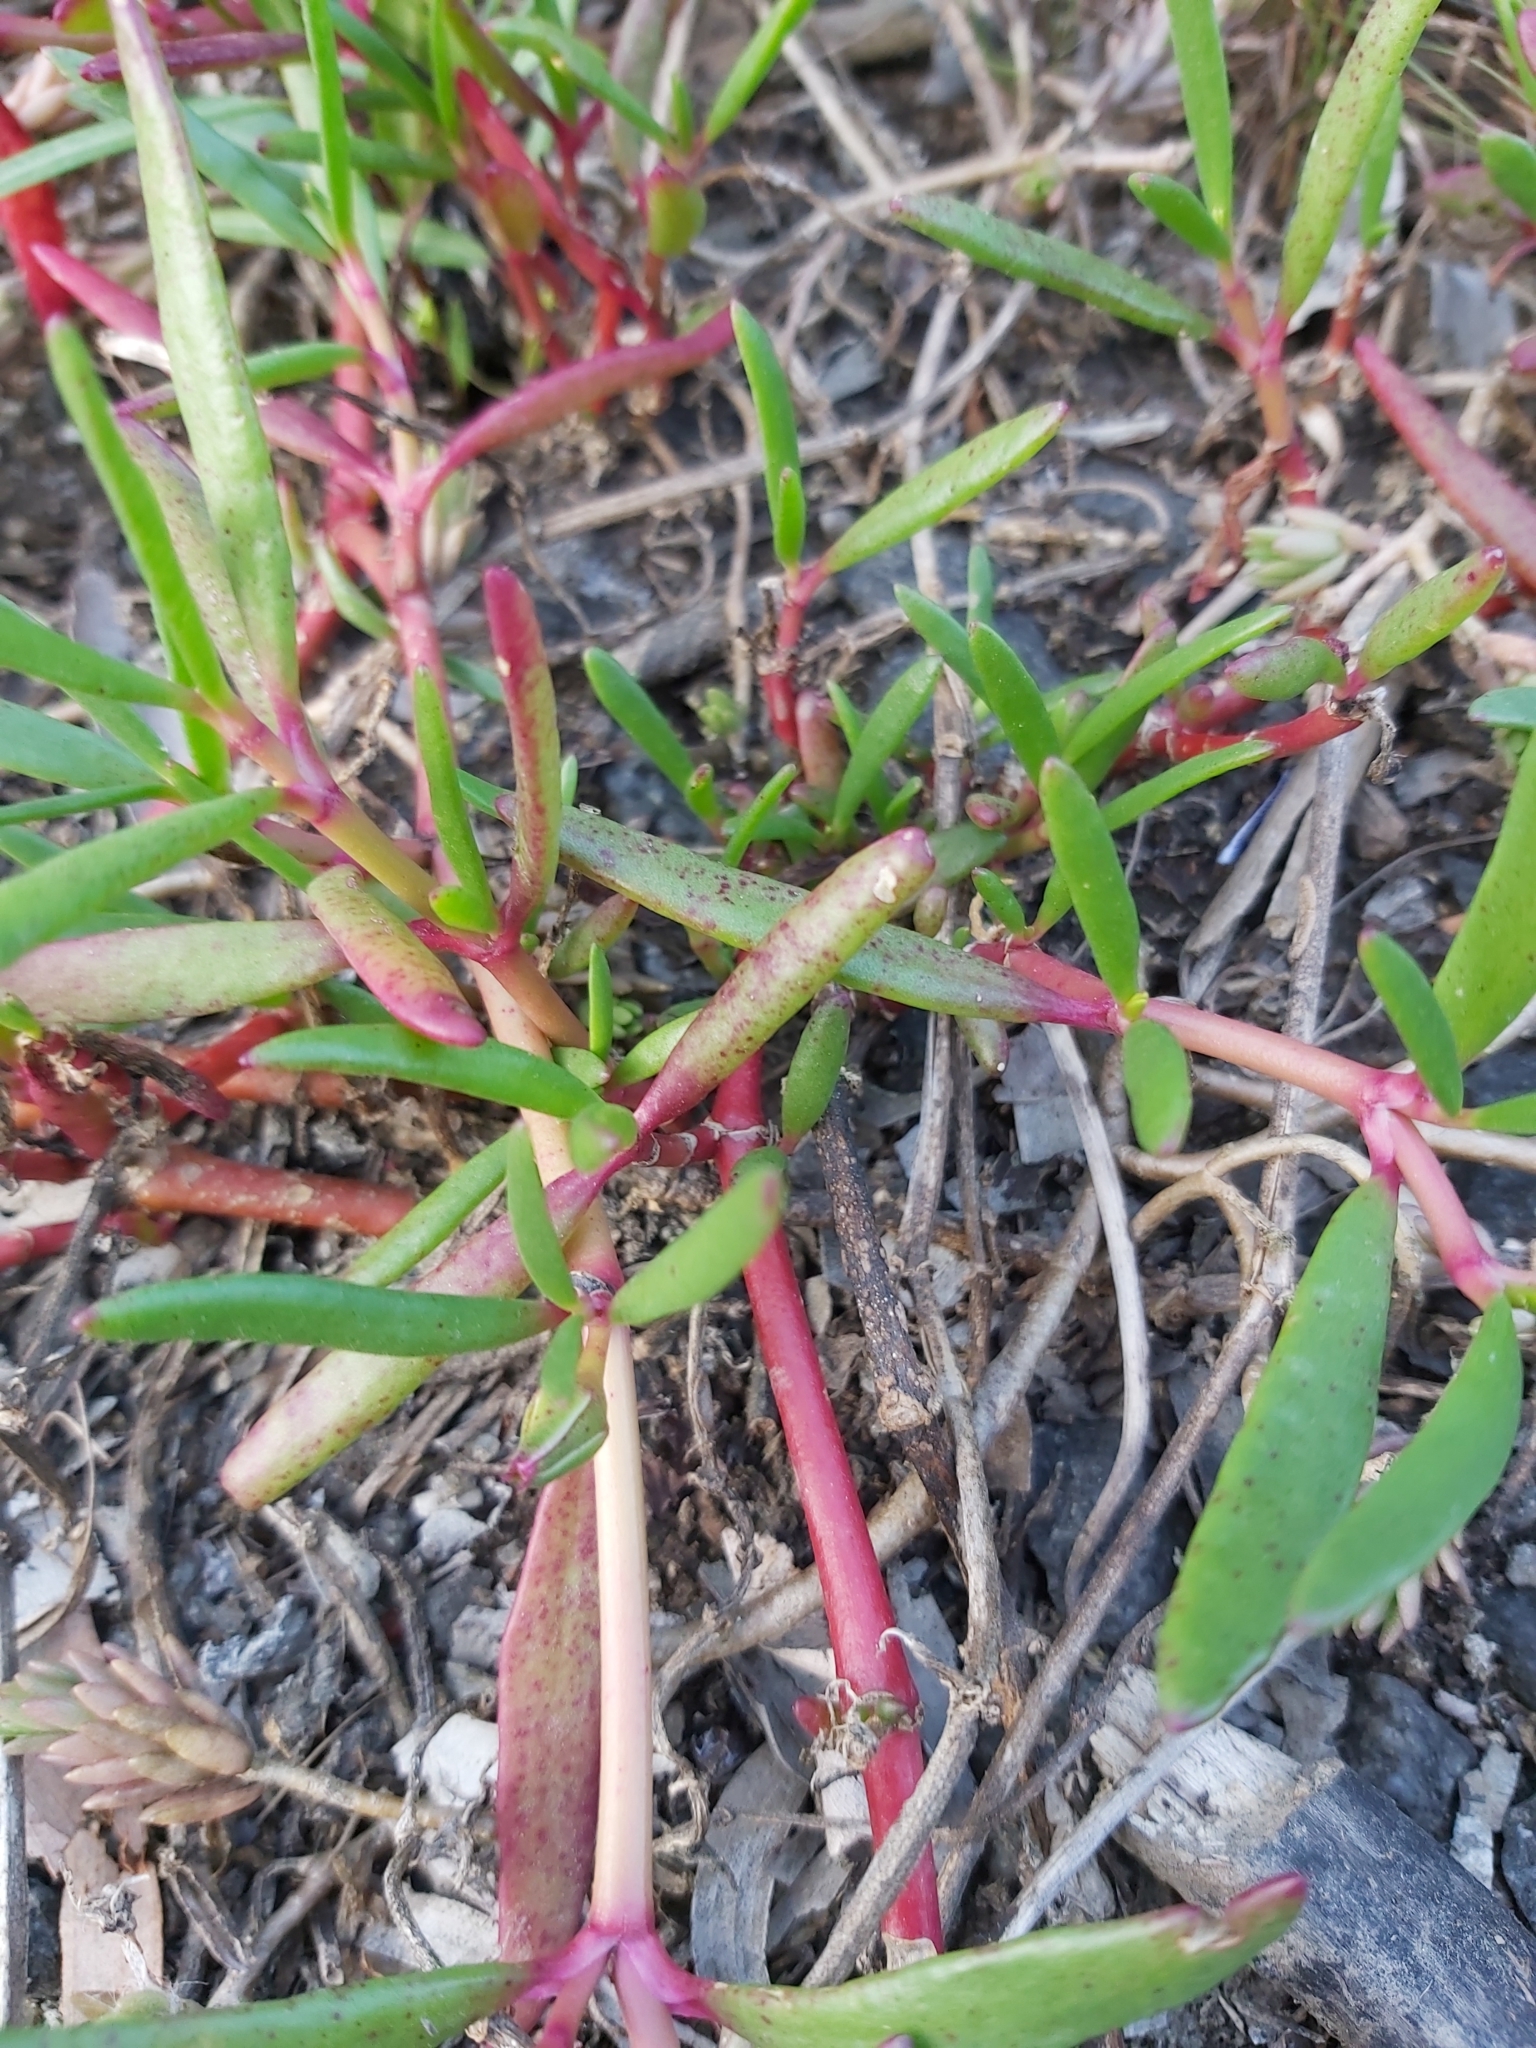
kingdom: Plantae
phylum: Tracheophyta
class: Magnoliopsida
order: Caryophyllales
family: Aizoaceae
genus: Sesuvium
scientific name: Sesuvium portulacastrum
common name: Sea-purslane
